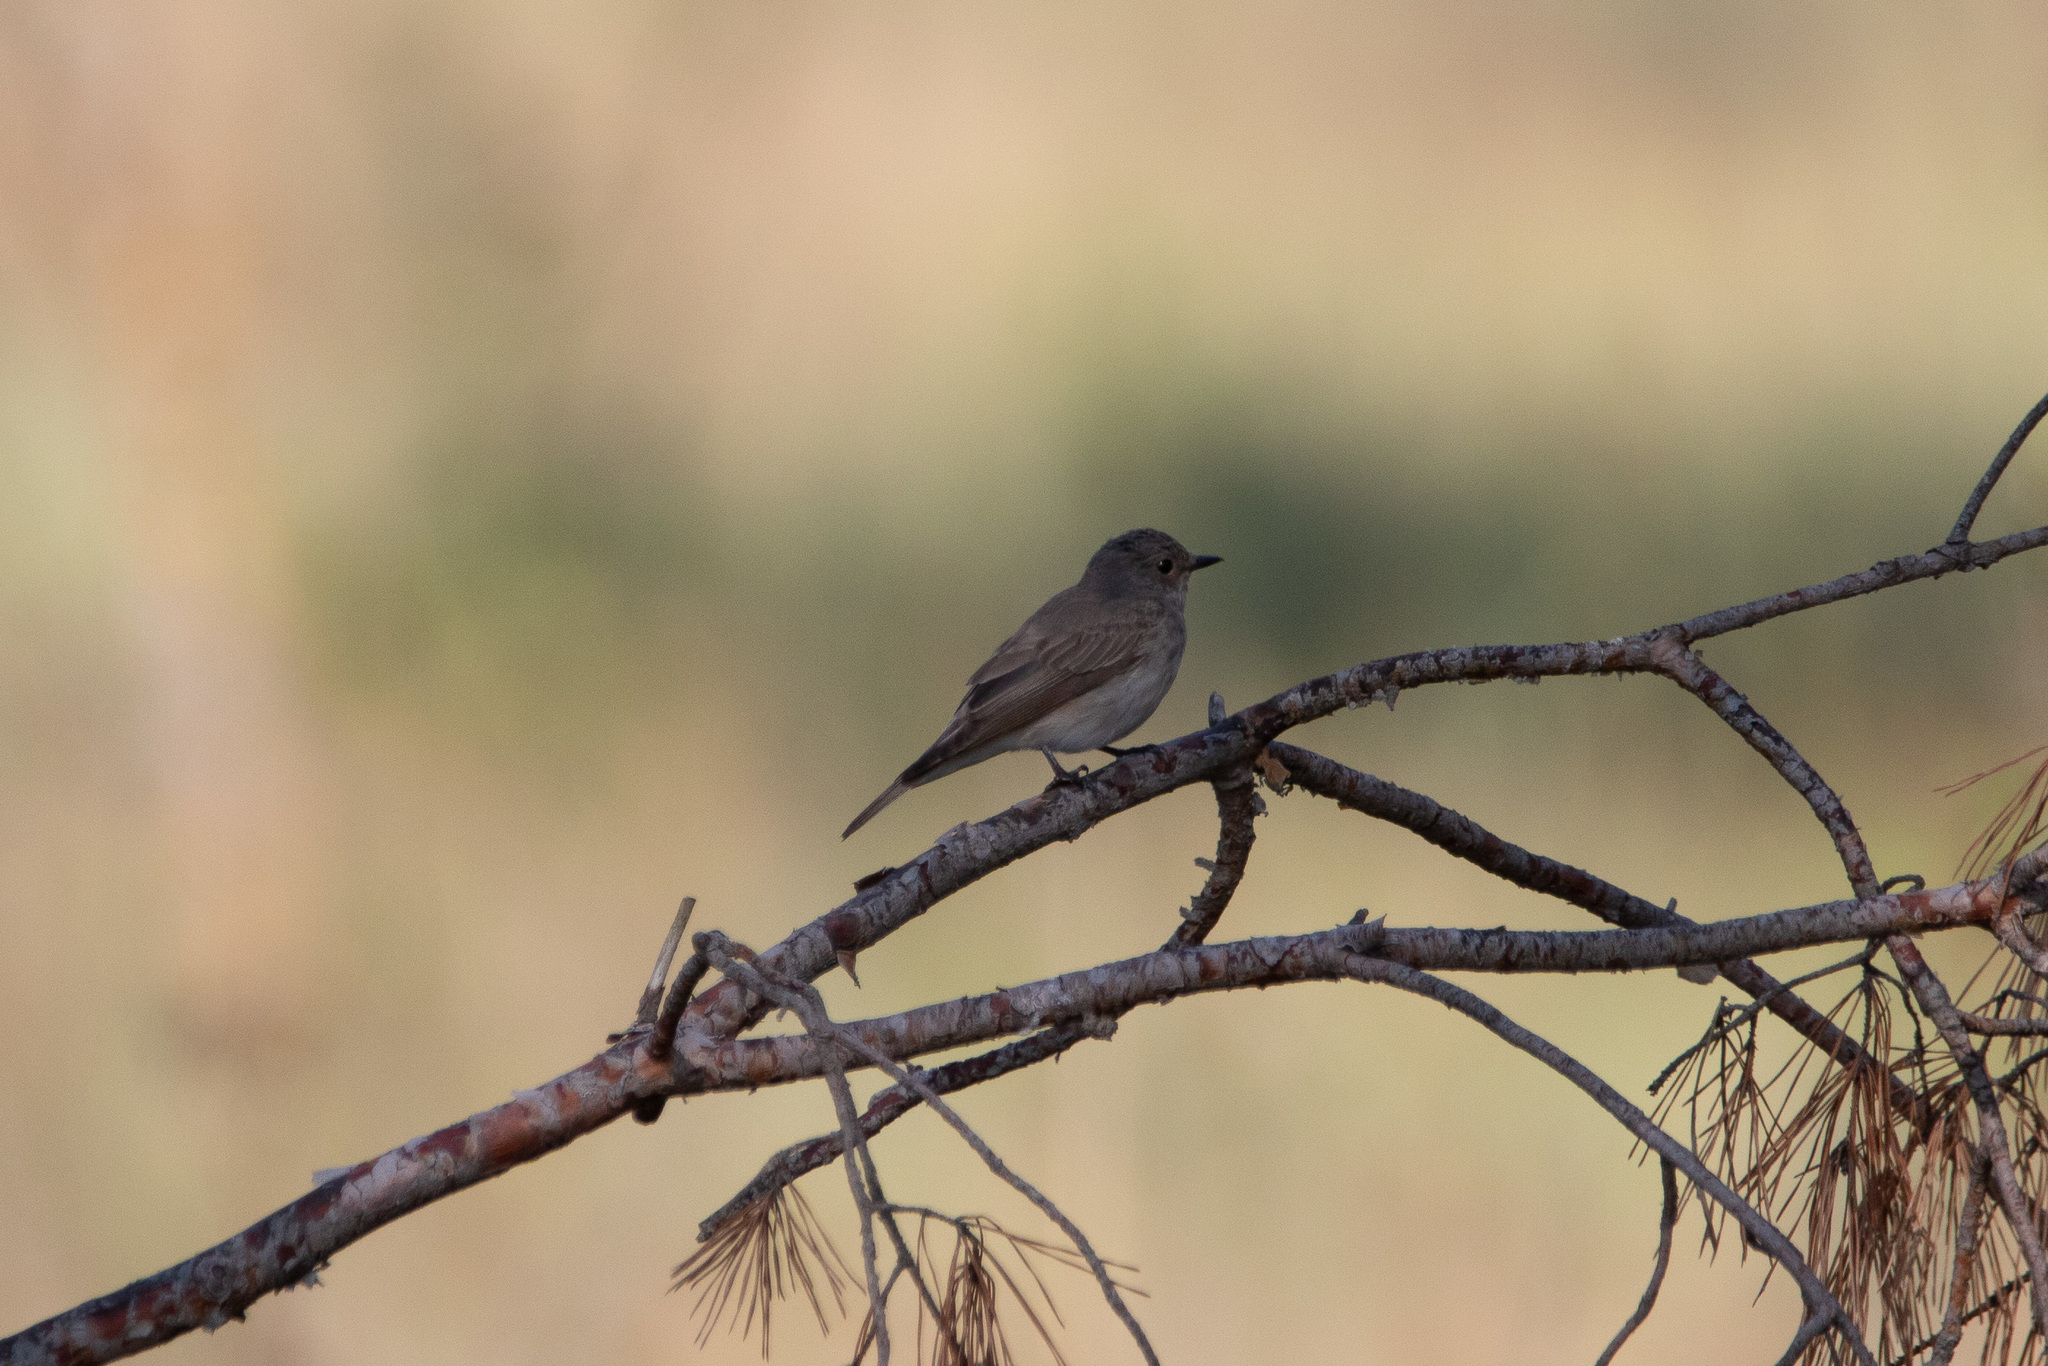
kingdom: Animalia
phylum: Chordata
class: Aves
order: Passeriformes
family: Muscicapidae
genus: Muscicapa
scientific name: Muscicapa striata
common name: Spotted flycatcher
